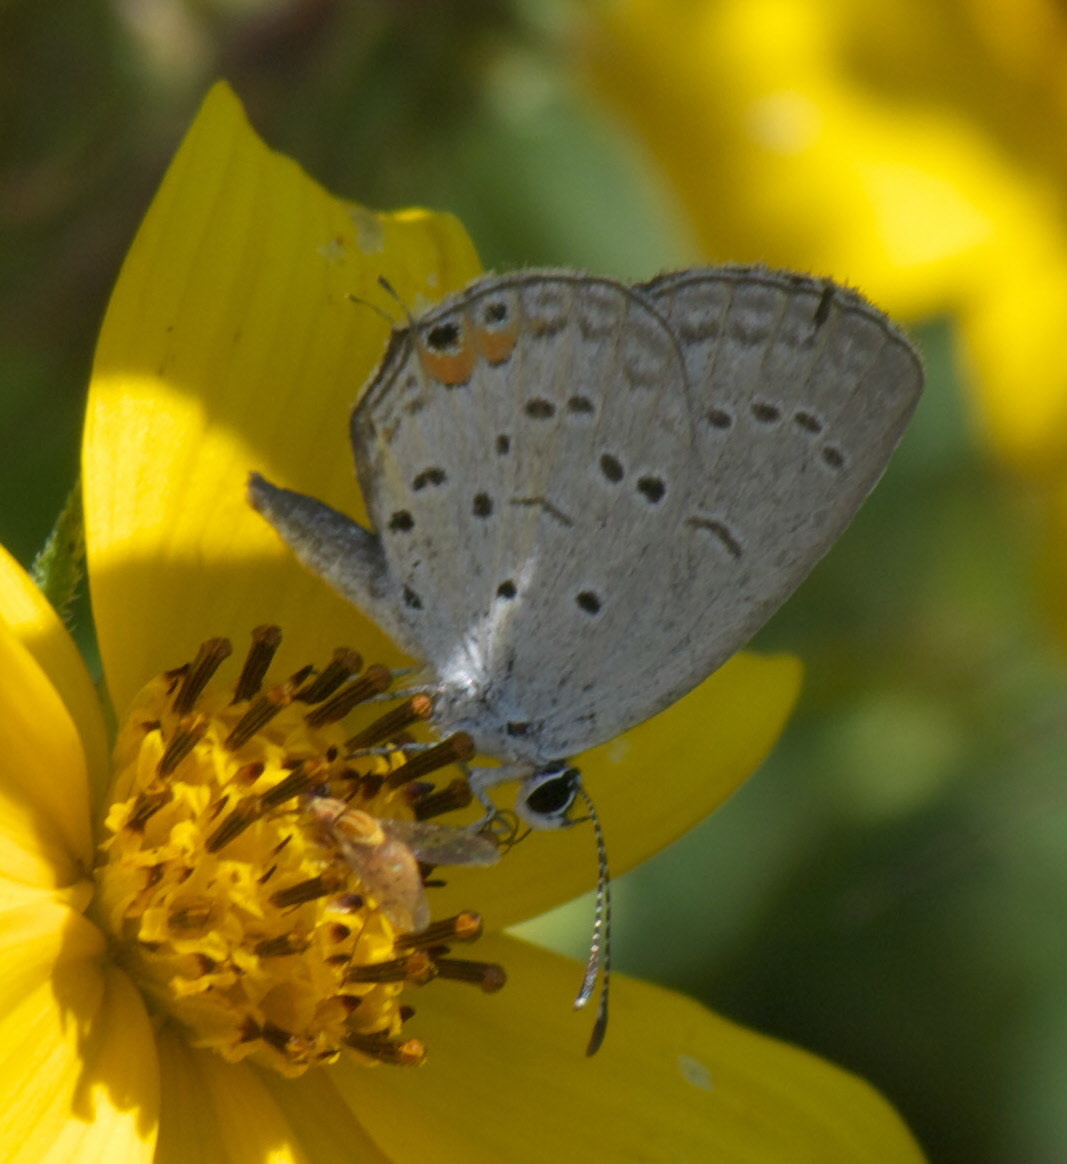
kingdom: Animalia
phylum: Arthropoda
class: Insecta
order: Lepidoptera
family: Lycaenidae
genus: Elkalyce
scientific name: Elkalyce comyntas
